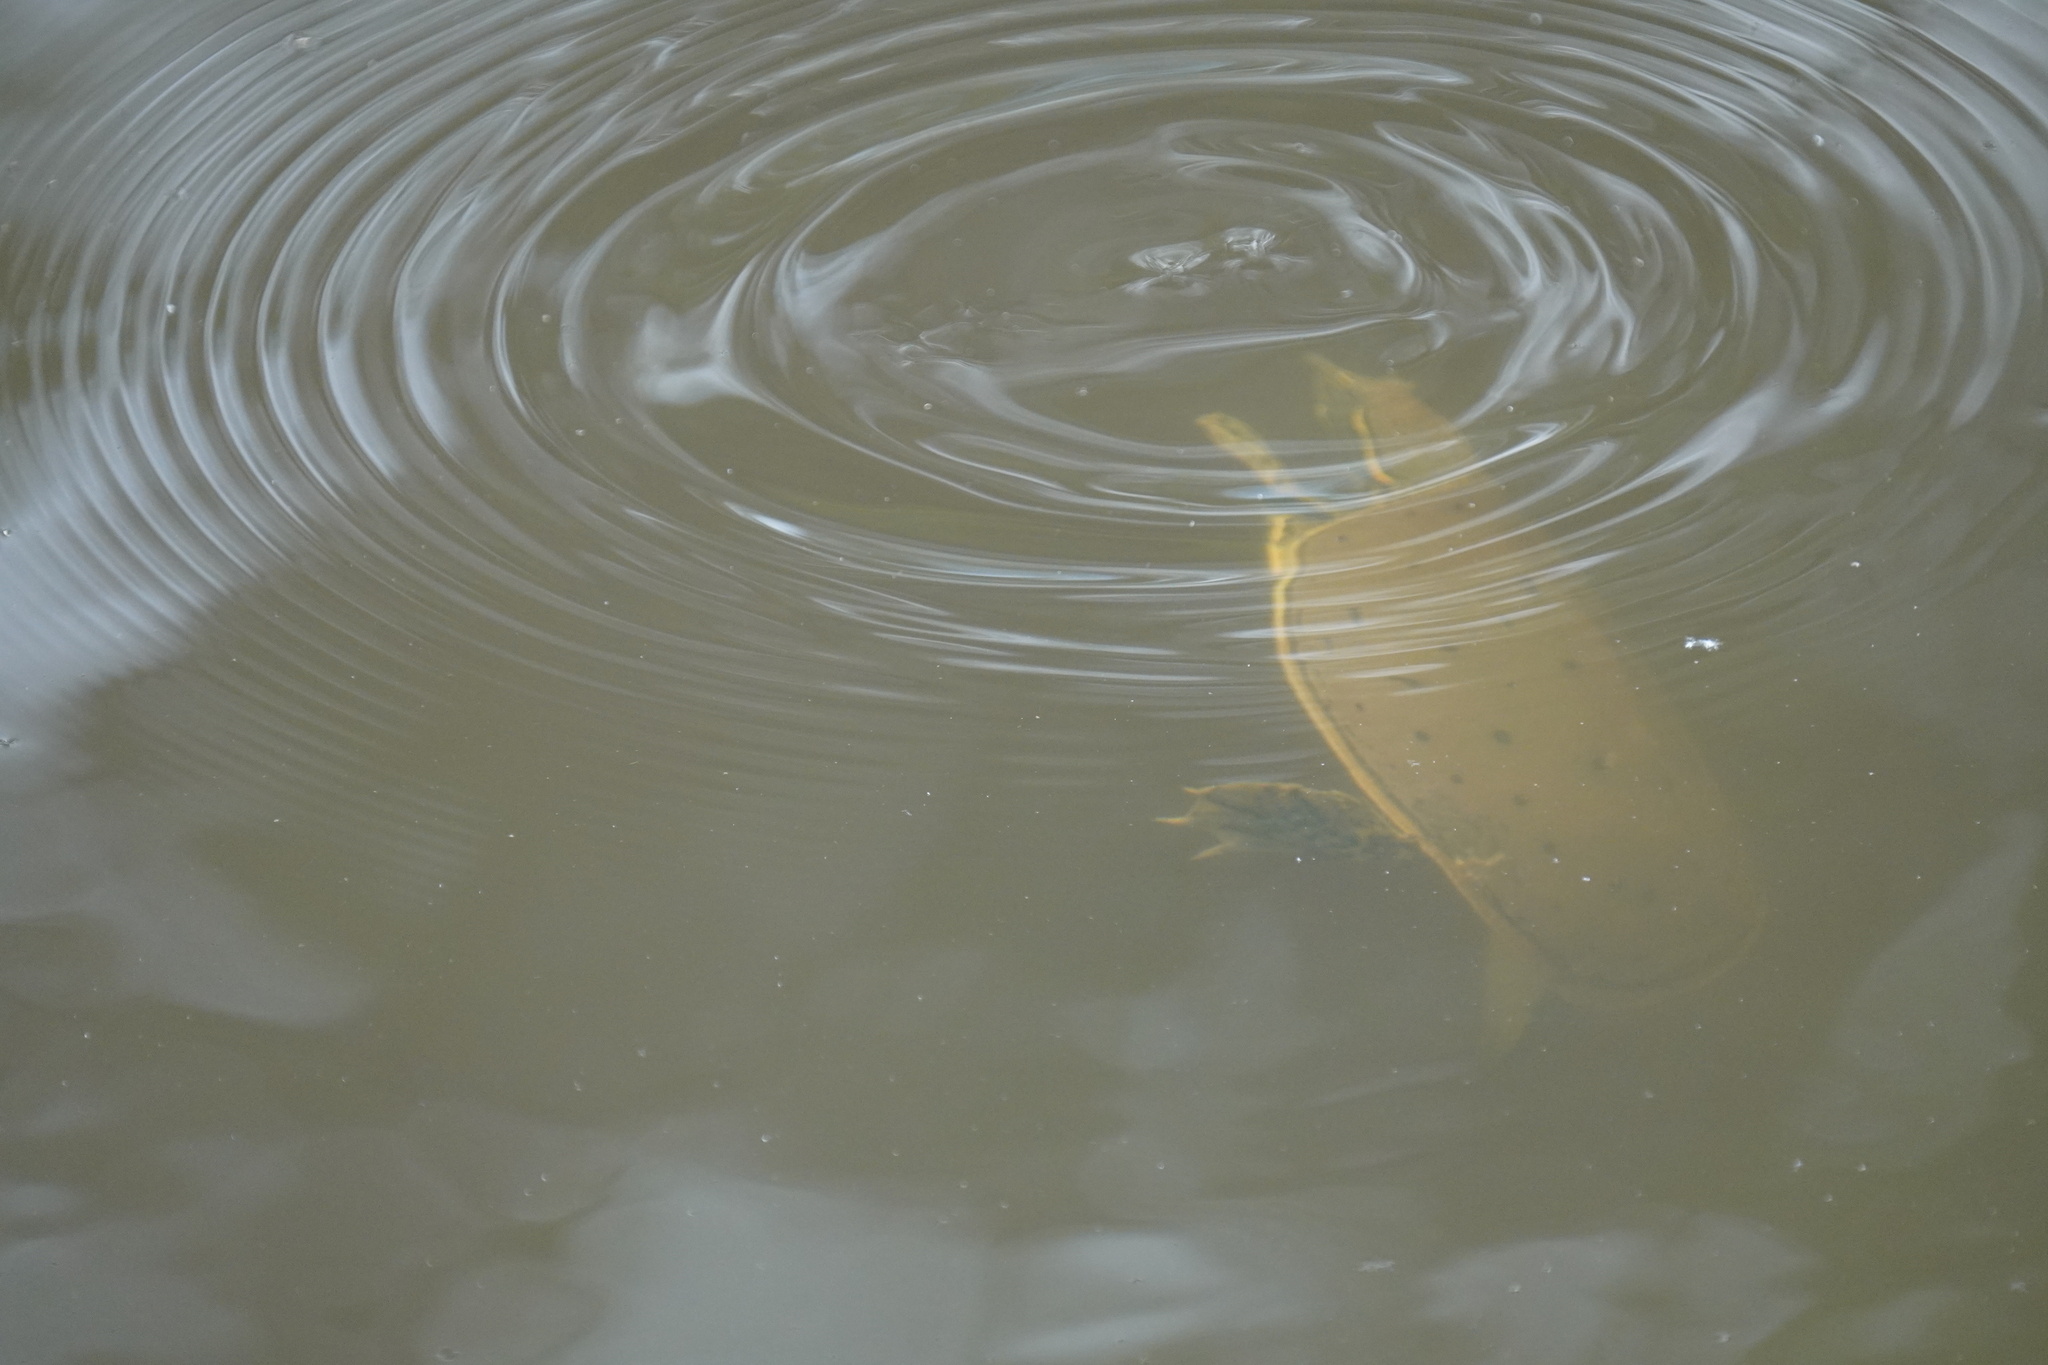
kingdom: Animalia
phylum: Chordata
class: Testudines
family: Trionychidae
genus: Apalone
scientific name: Apalone spinifera
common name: Spiny softshell turtle
